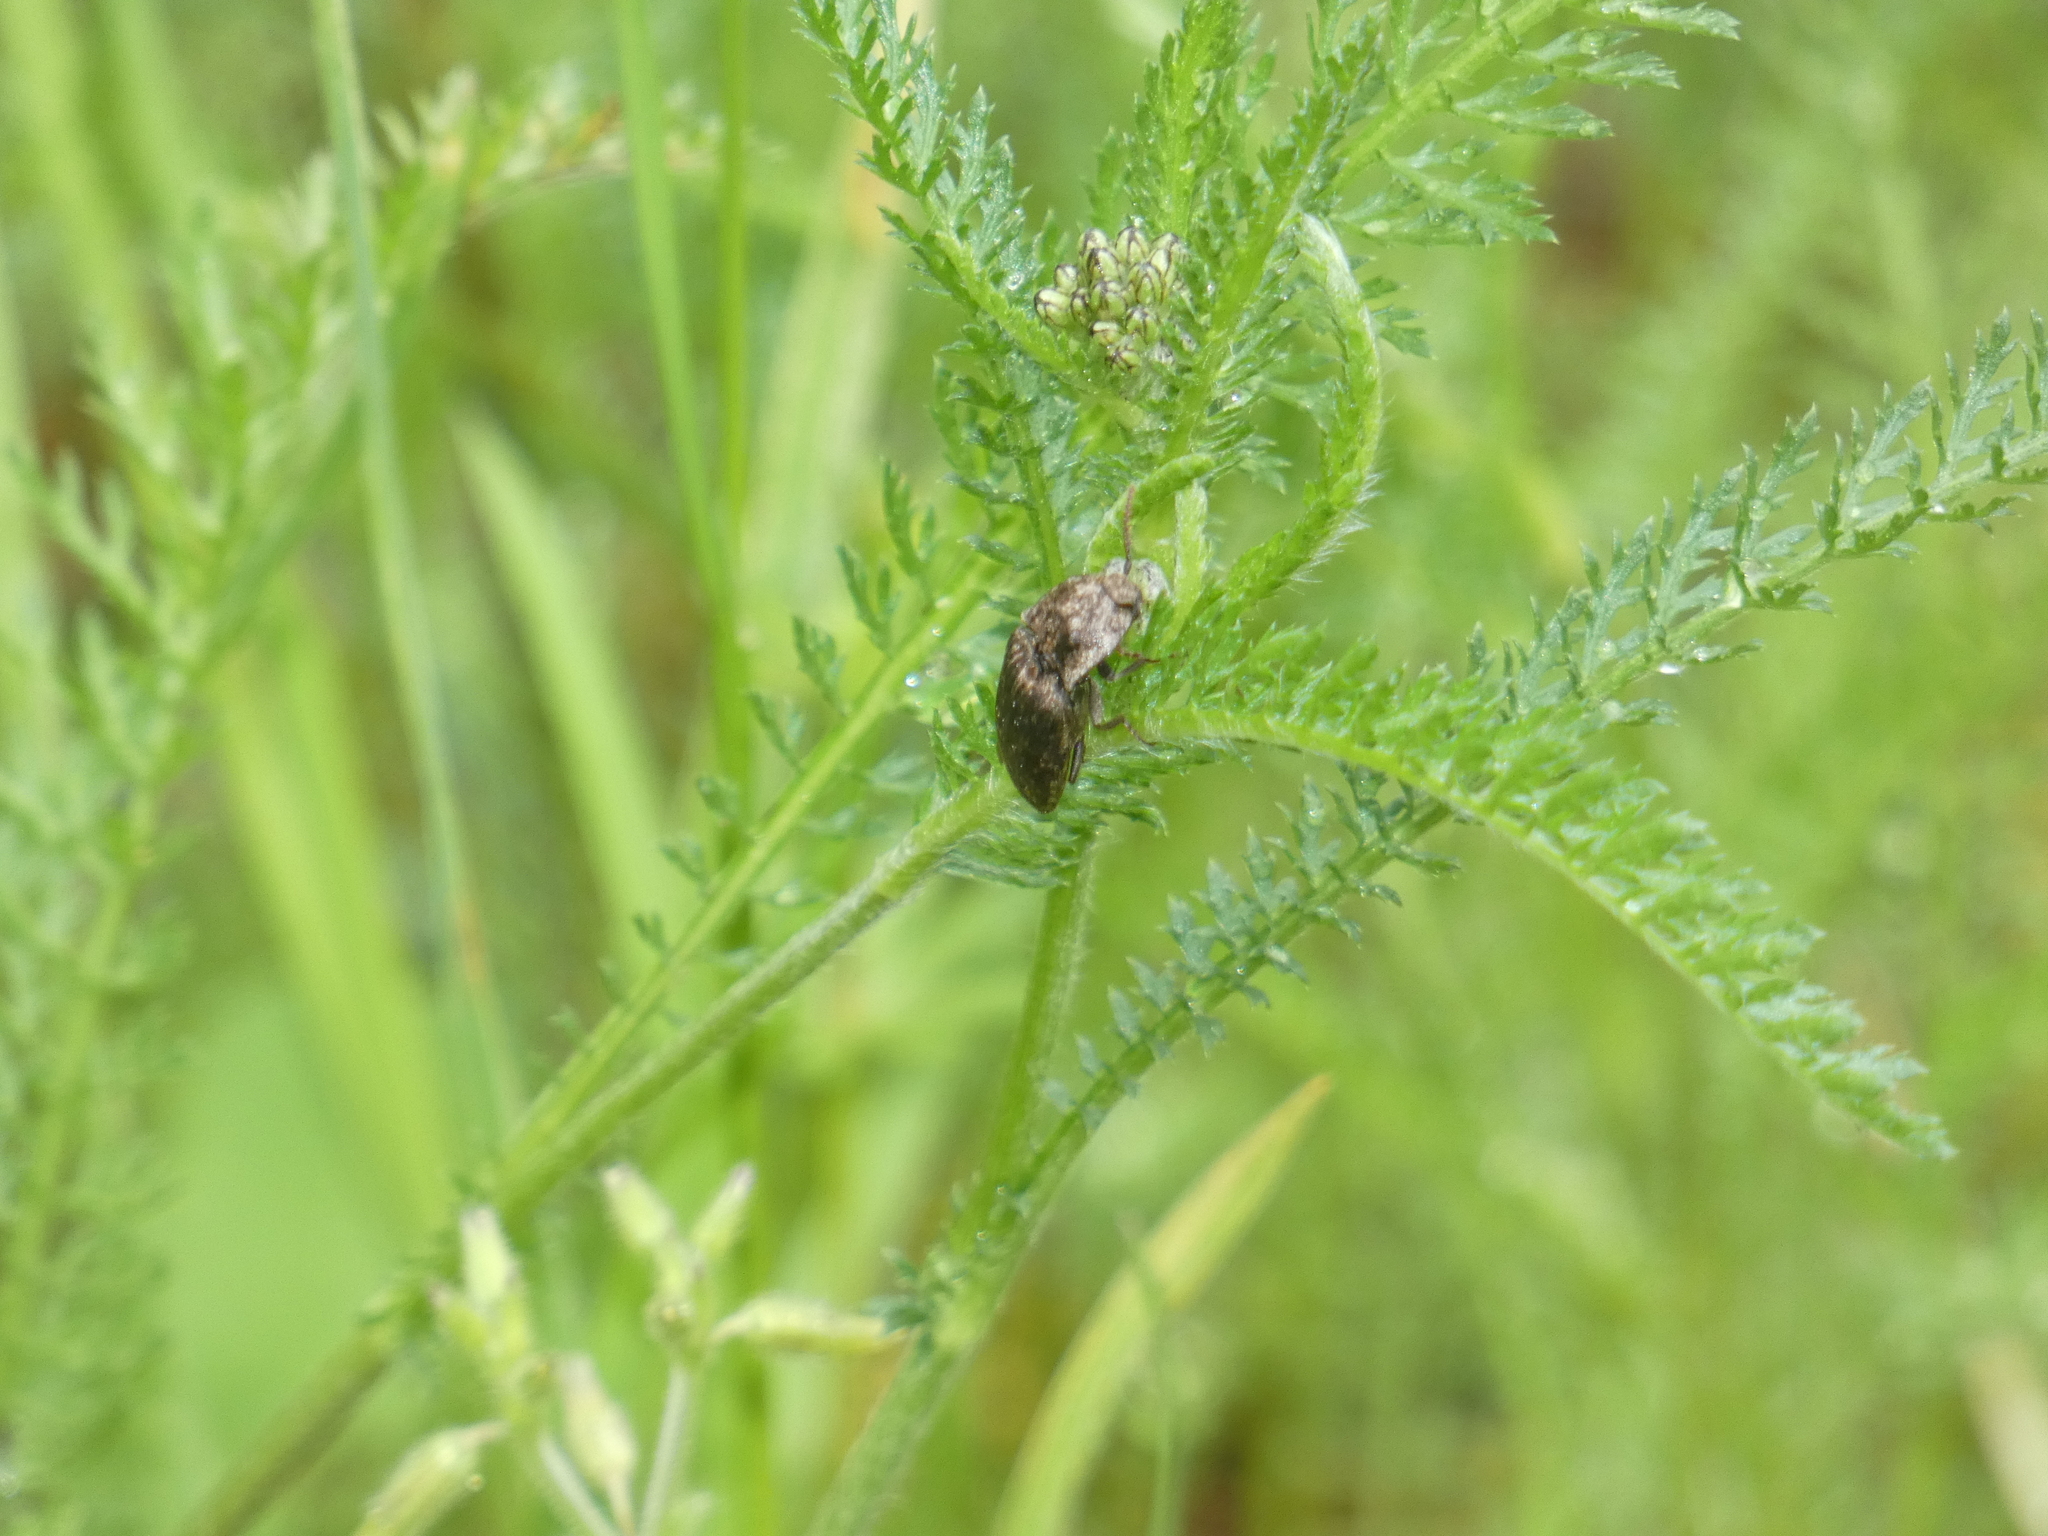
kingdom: Animalia
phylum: Arthropoda
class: Insecta
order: Coleoptera
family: Elateridae
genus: Agrypnus
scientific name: Agrypnus murinus
